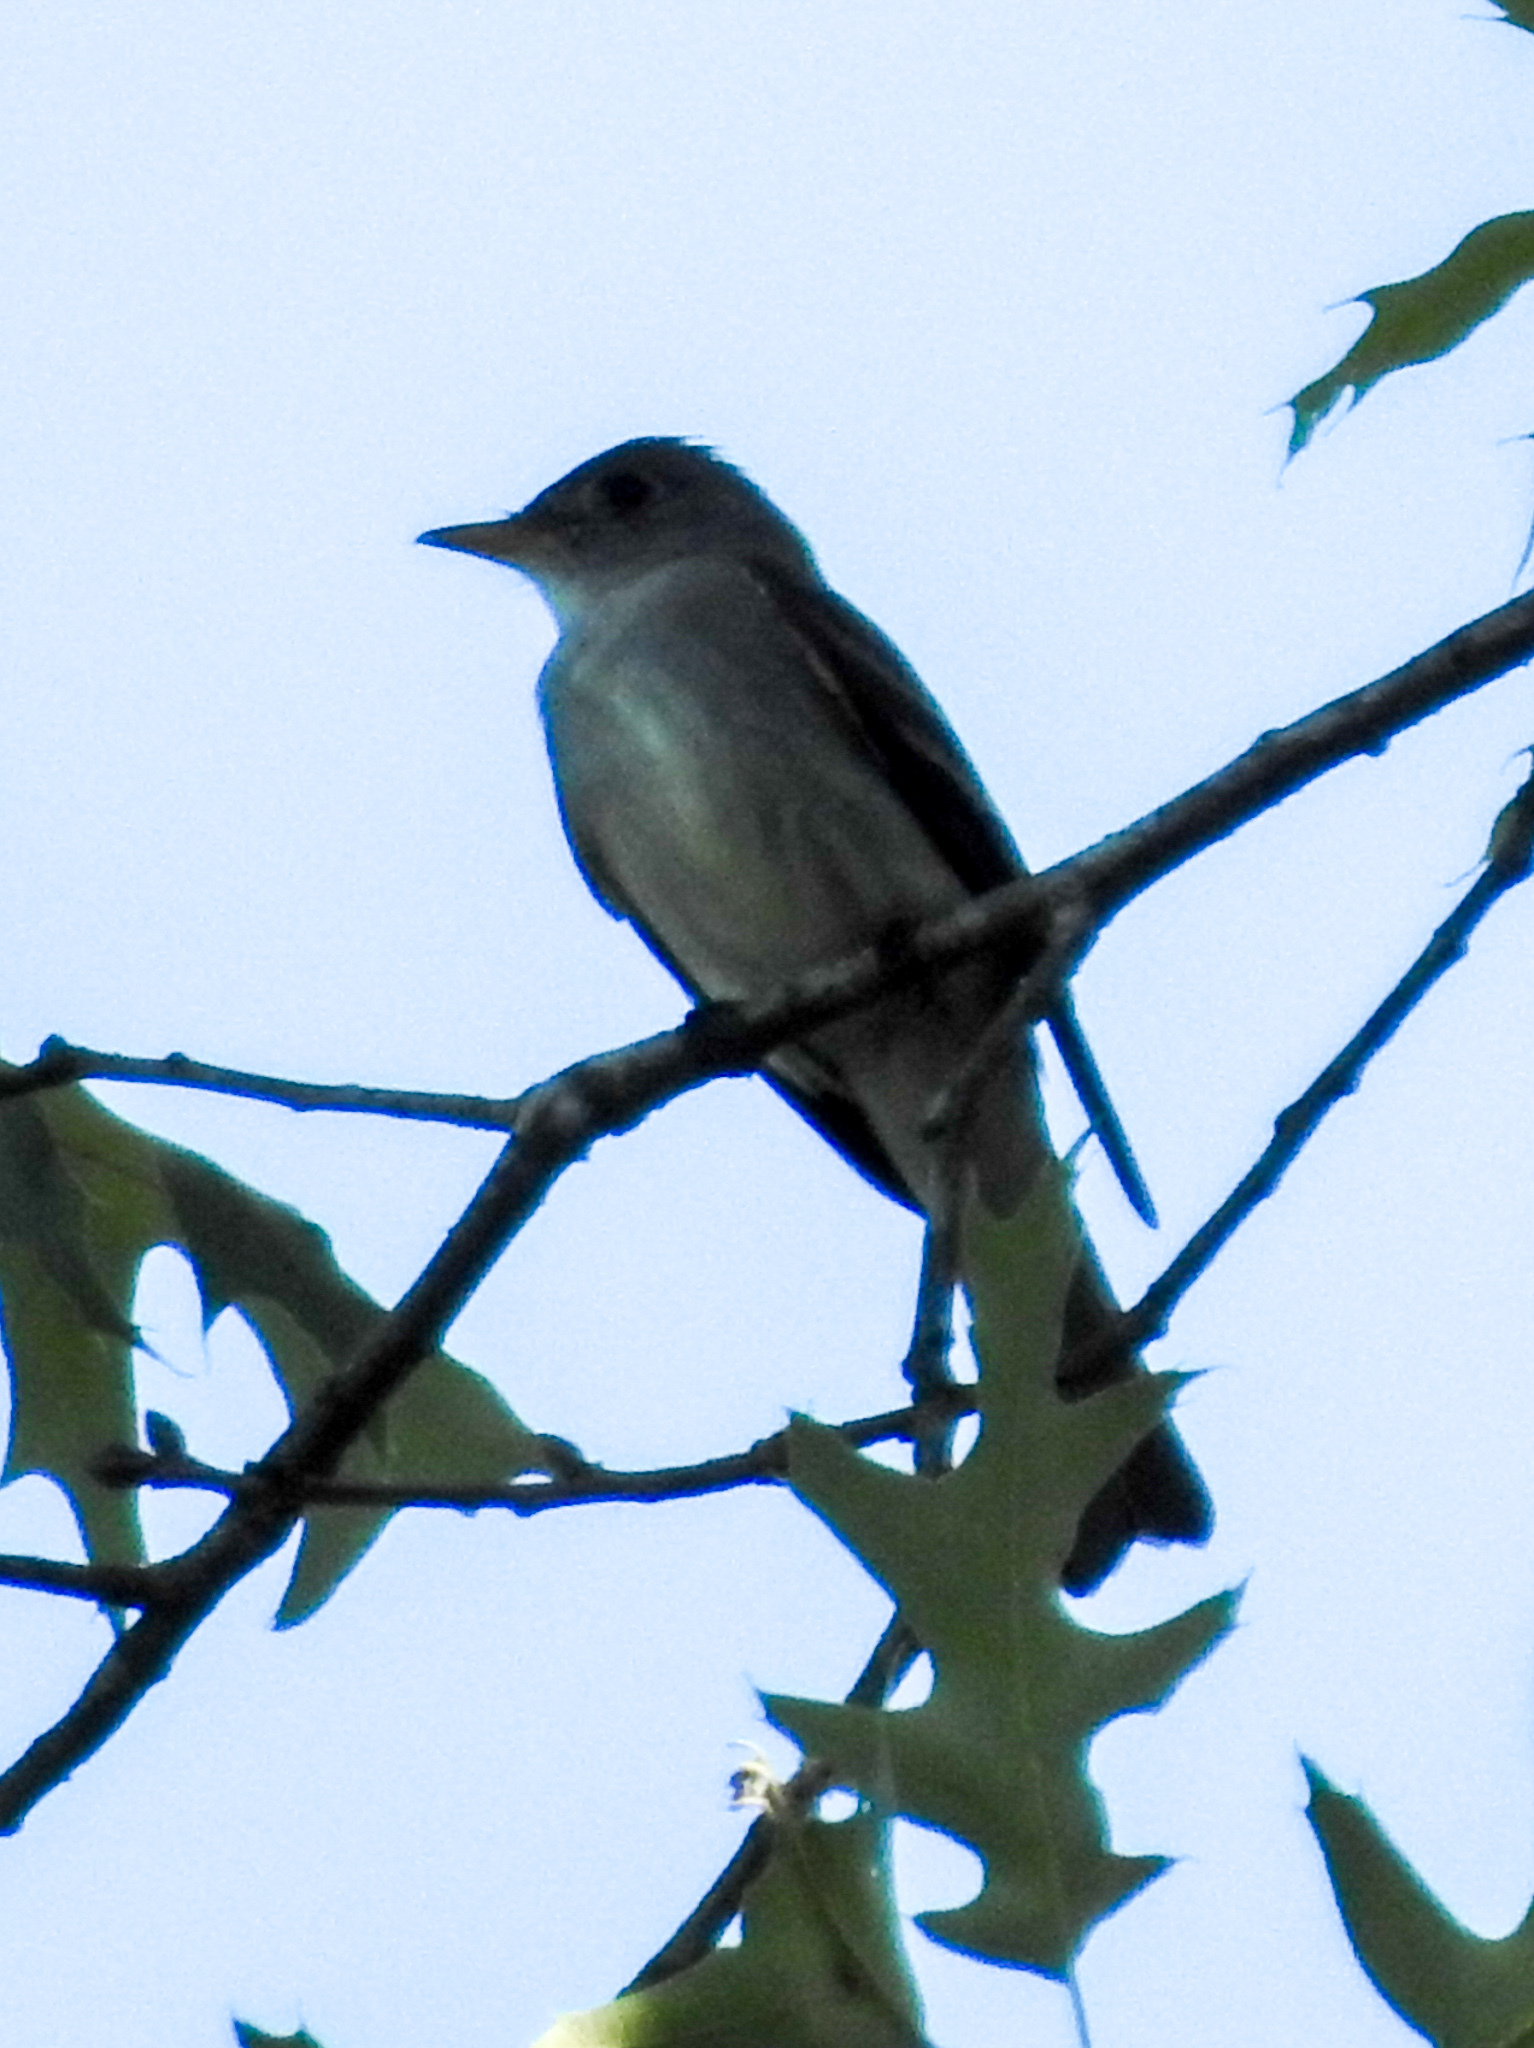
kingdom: Animalia
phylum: Chordata
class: Aves
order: Passeriformes
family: Tyrannidae
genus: Contopus
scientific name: Contopus virens
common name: Eastern wood-pewee
